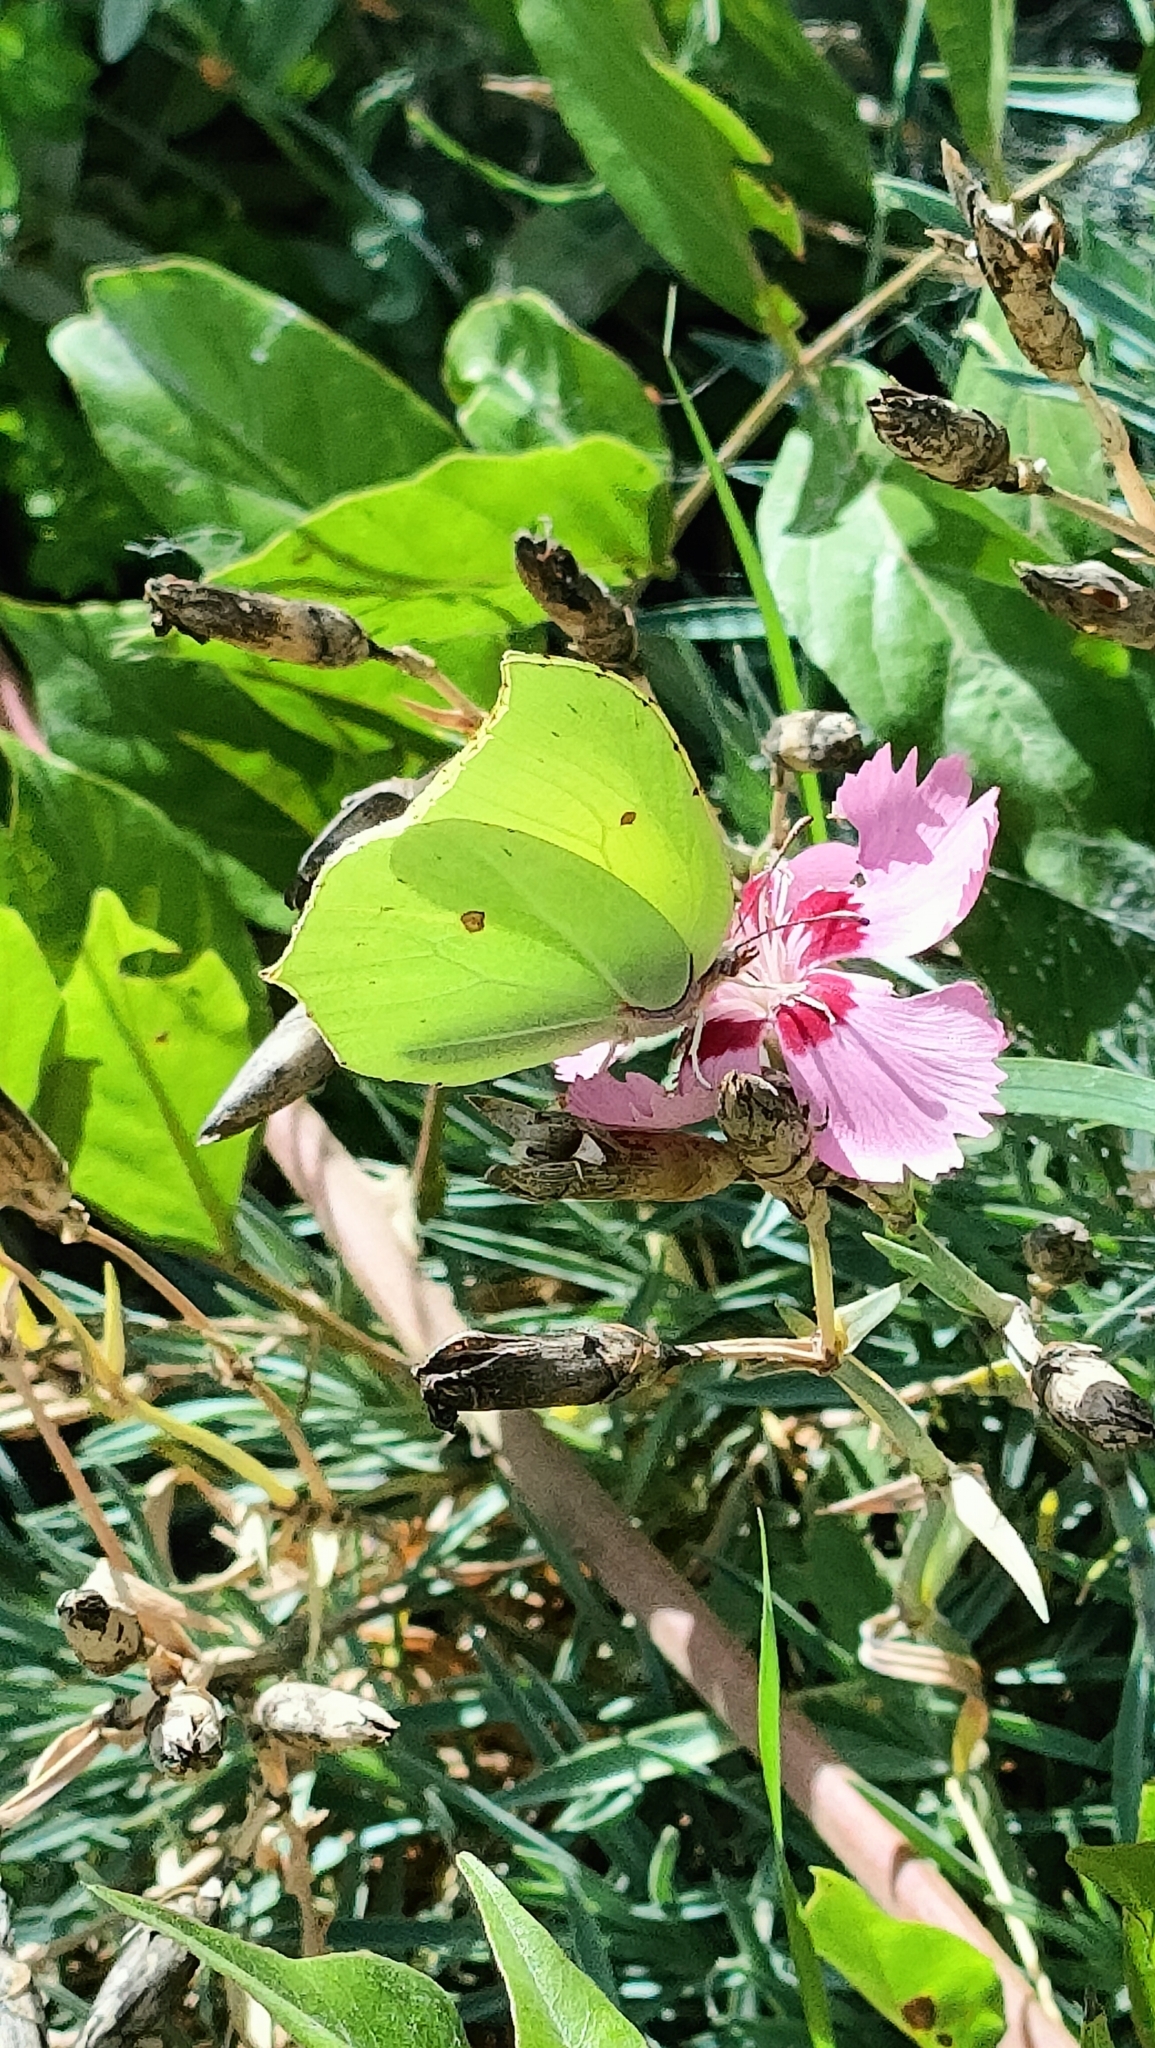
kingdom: Animalia
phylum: Arthropoda
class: Insecta
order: Lepidoptera
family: Pieridae
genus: Gonepteryx
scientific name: Gonepteryx rhamni
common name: Brimstone
